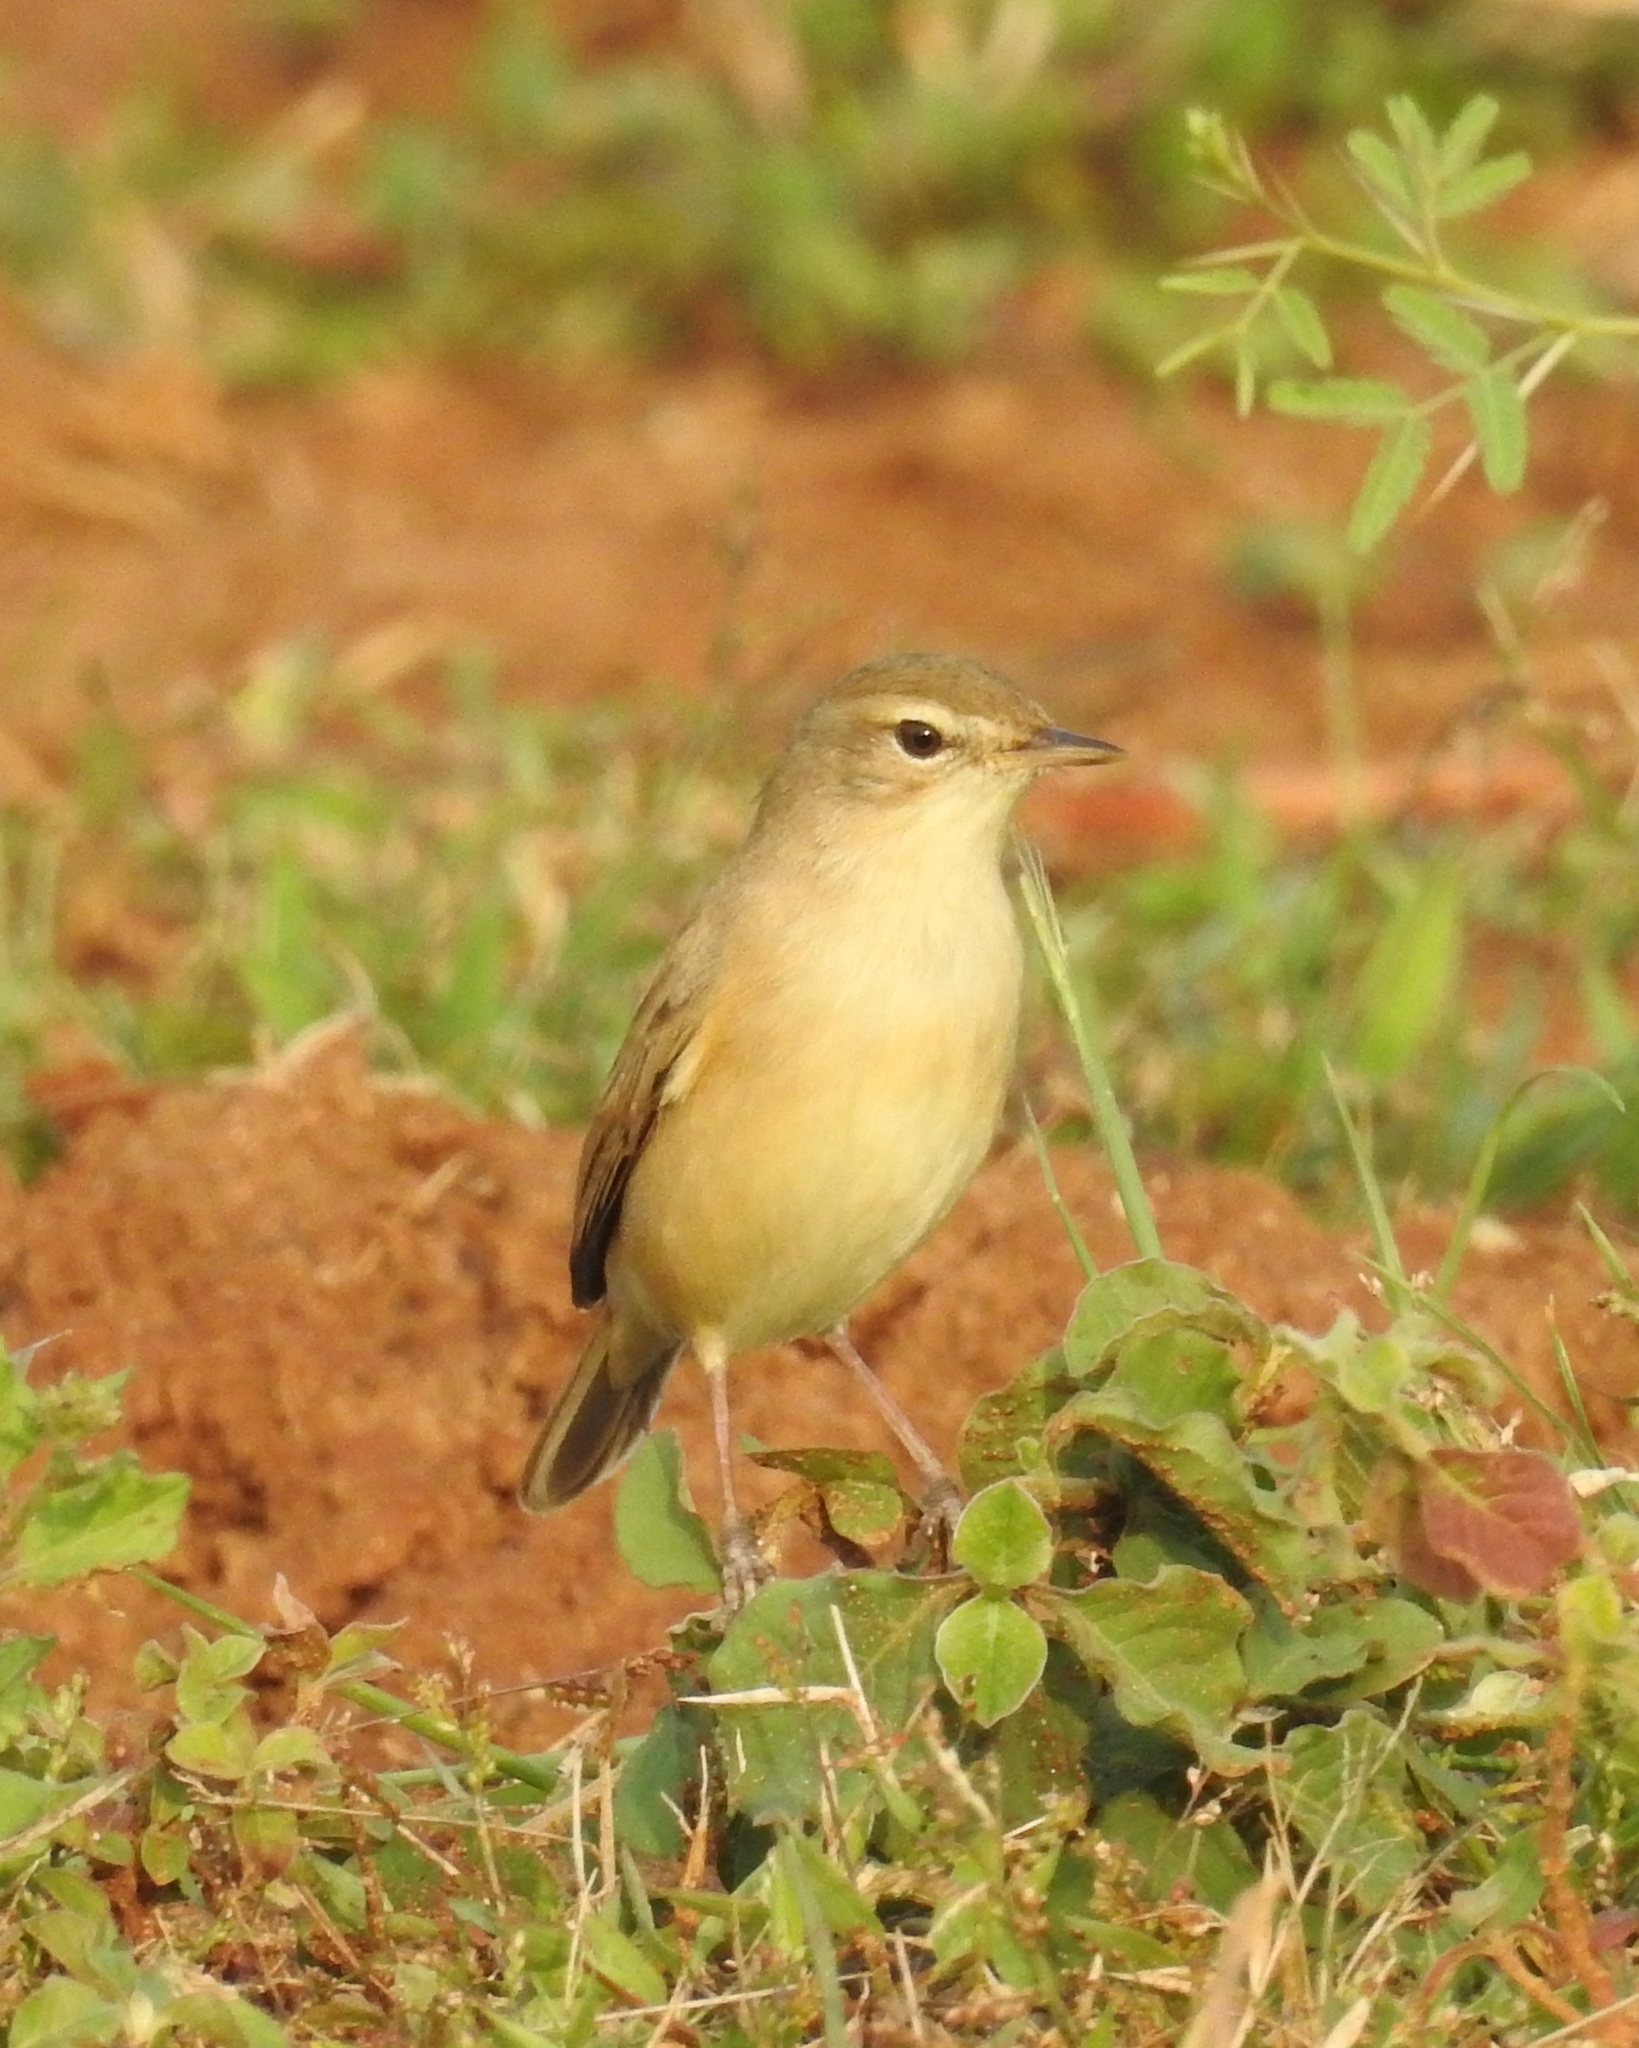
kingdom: Animalia
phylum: Chordata
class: Aves
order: Passeriformes
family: Acrocephalidae
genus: Iduna
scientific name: Iduna caligata
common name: Booted warbler
